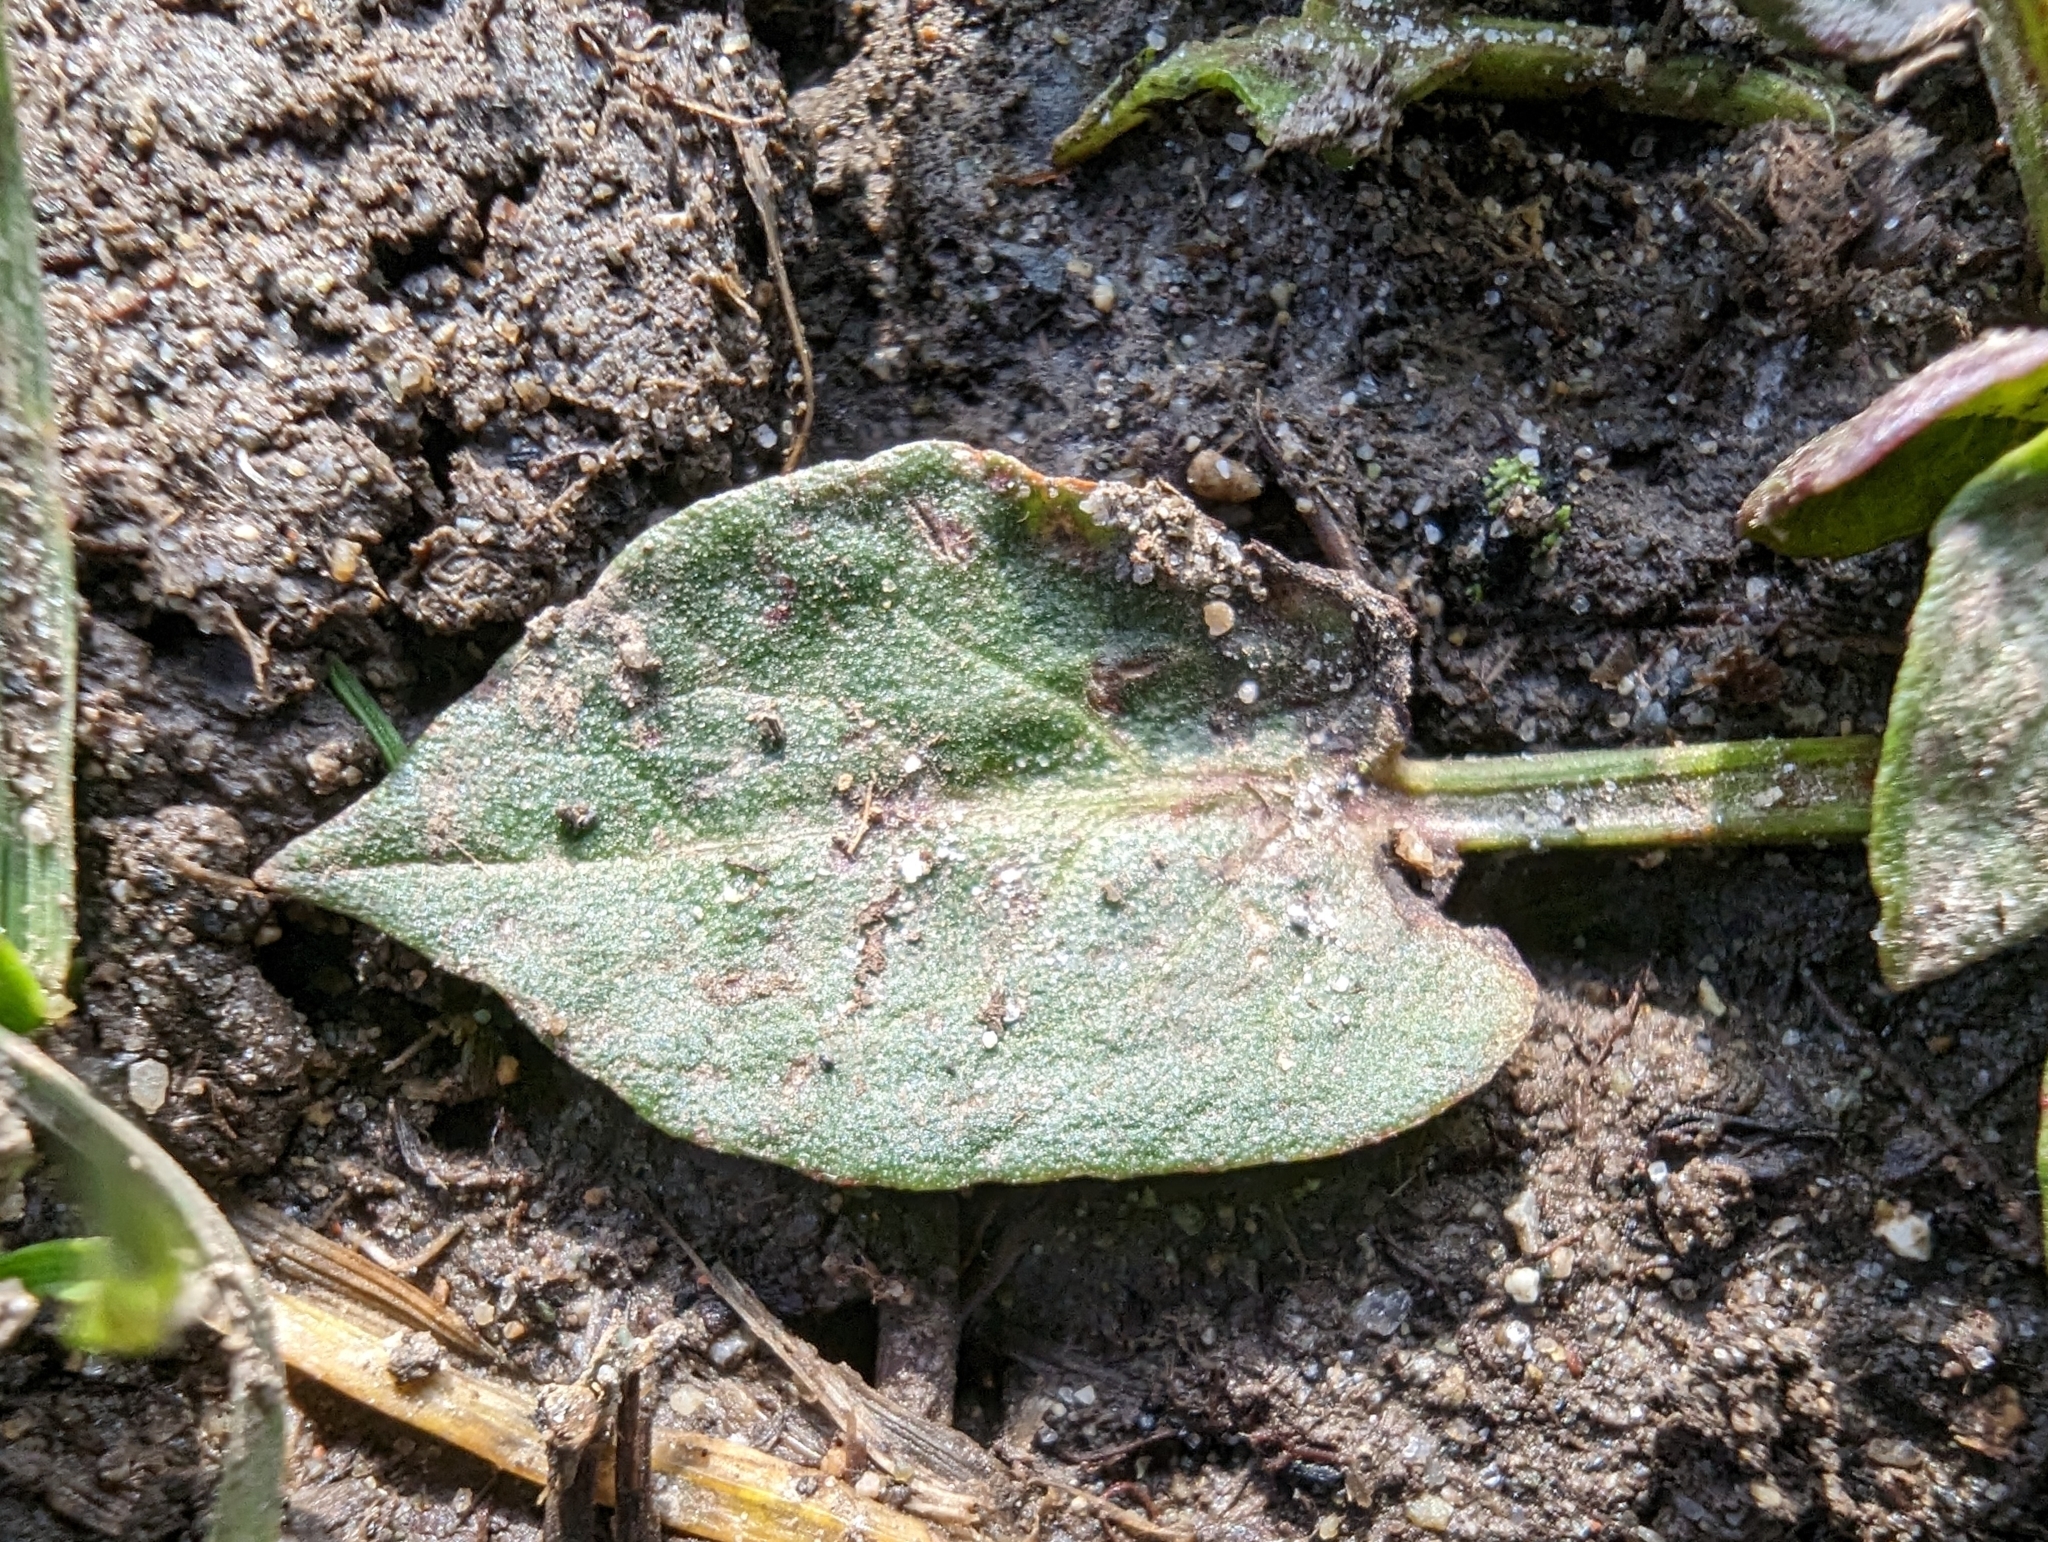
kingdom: Plantae
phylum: Tracheophyta
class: Magnoliopsida
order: Caryophyllales
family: Polygonaceae
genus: Rumex
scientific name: Rumex obtusifolius
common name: Bitter dock
